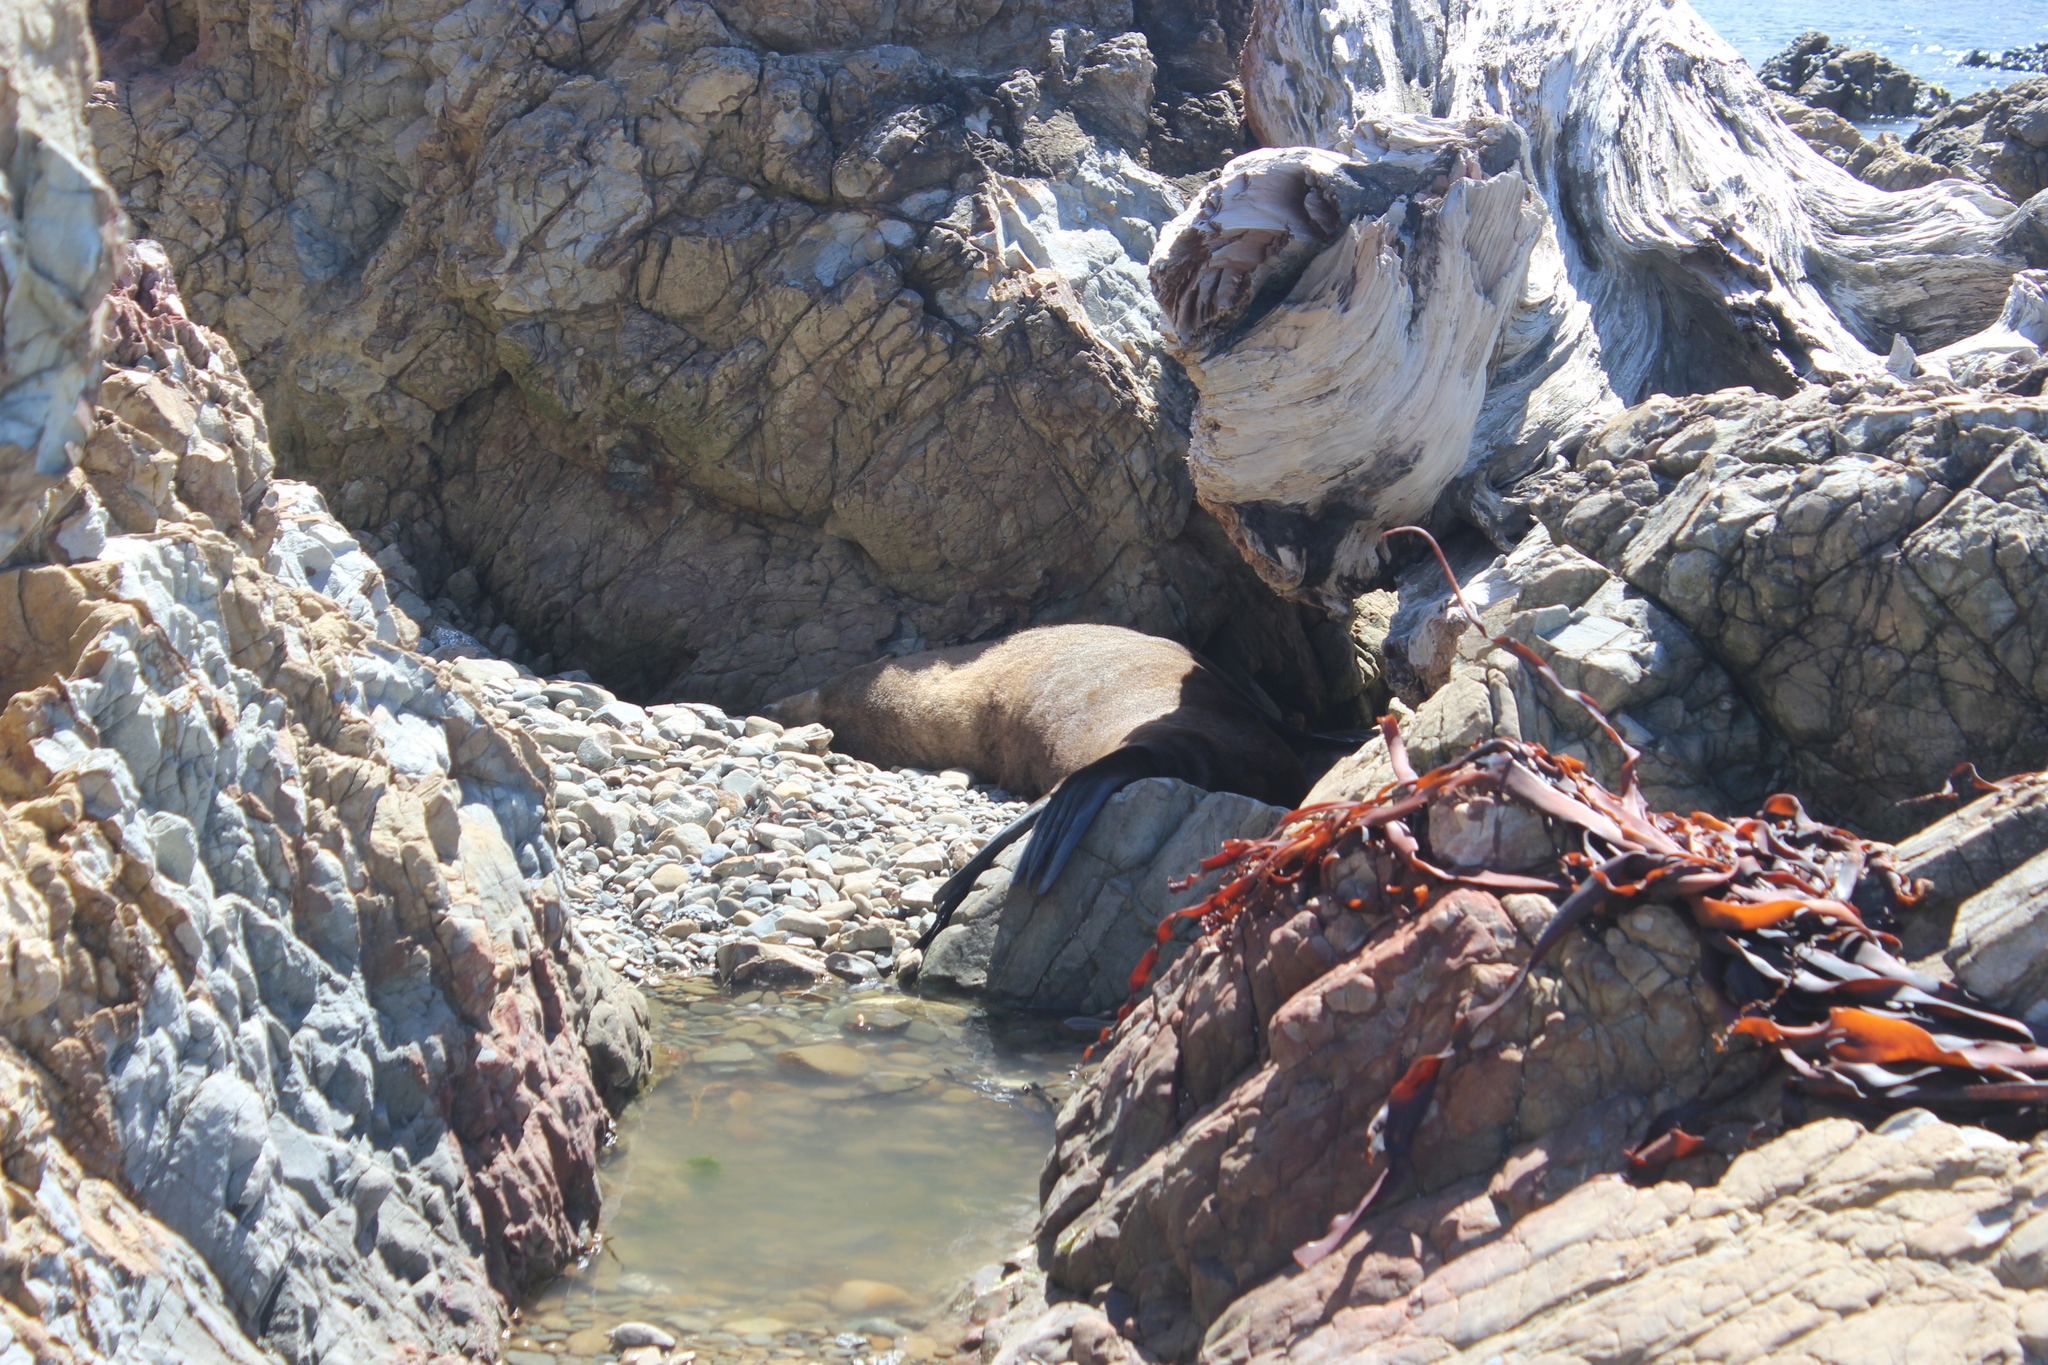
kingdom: Animalia
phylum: Chordata
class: Mammalia
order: Carnivora
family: Otariidae
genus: Arctocephalus
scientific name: Arctocephalus forsteri
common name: New zealand fur seal
